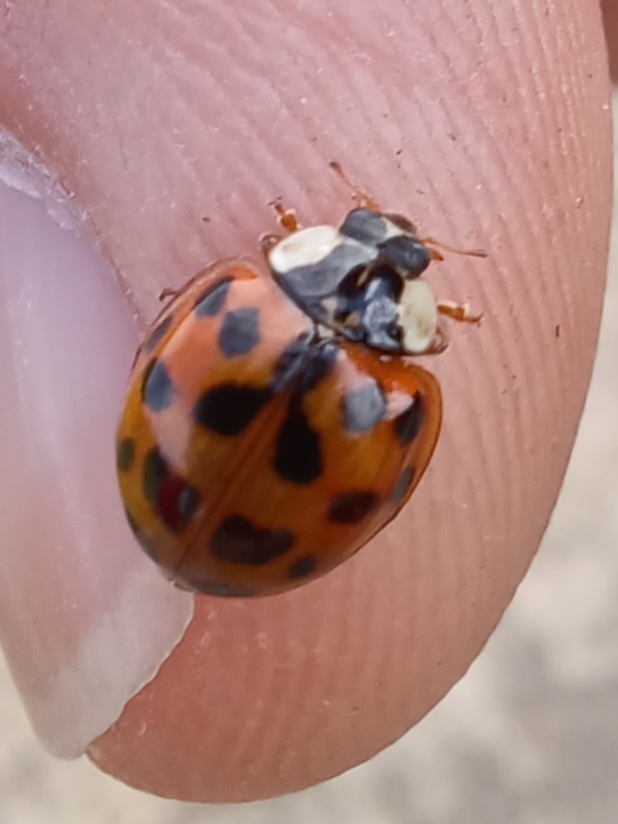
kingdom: Animalia
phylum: Arthropoda
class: Insecta
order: Coleoptera
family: Coccinellidae
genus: Harmonia
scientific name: Harmonia axyridis
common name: Harlequin ladybird
